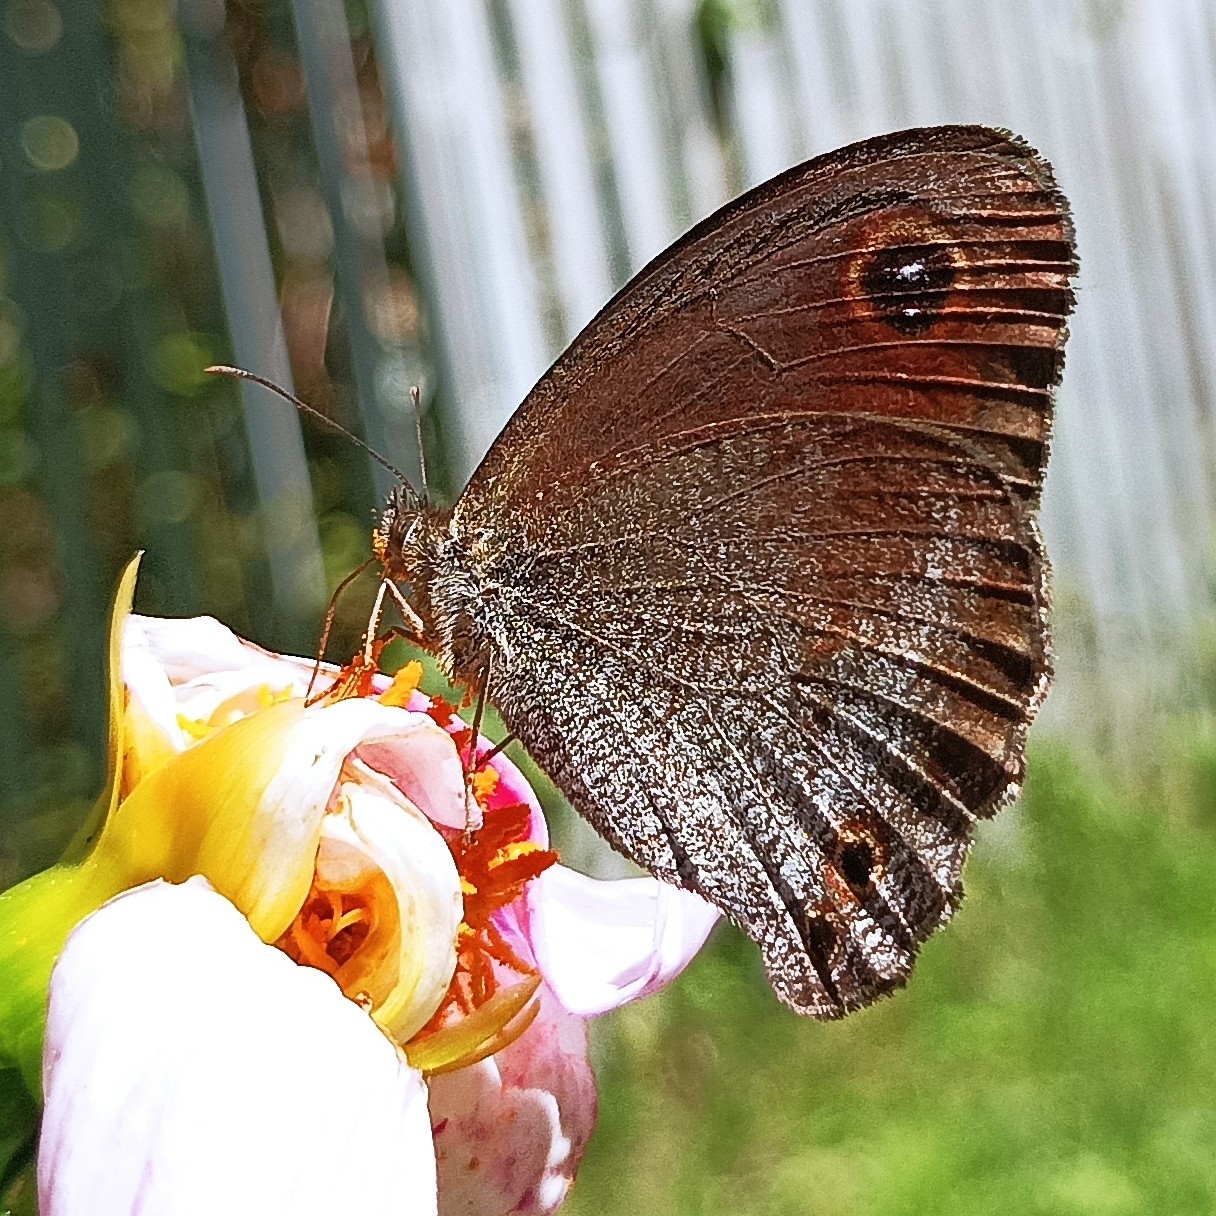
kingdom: Animalia
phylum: Arthropoda
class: Insecta
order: Lepidoptera
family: Nymphalidae
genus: Callerebia
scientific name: Callerebia annada
